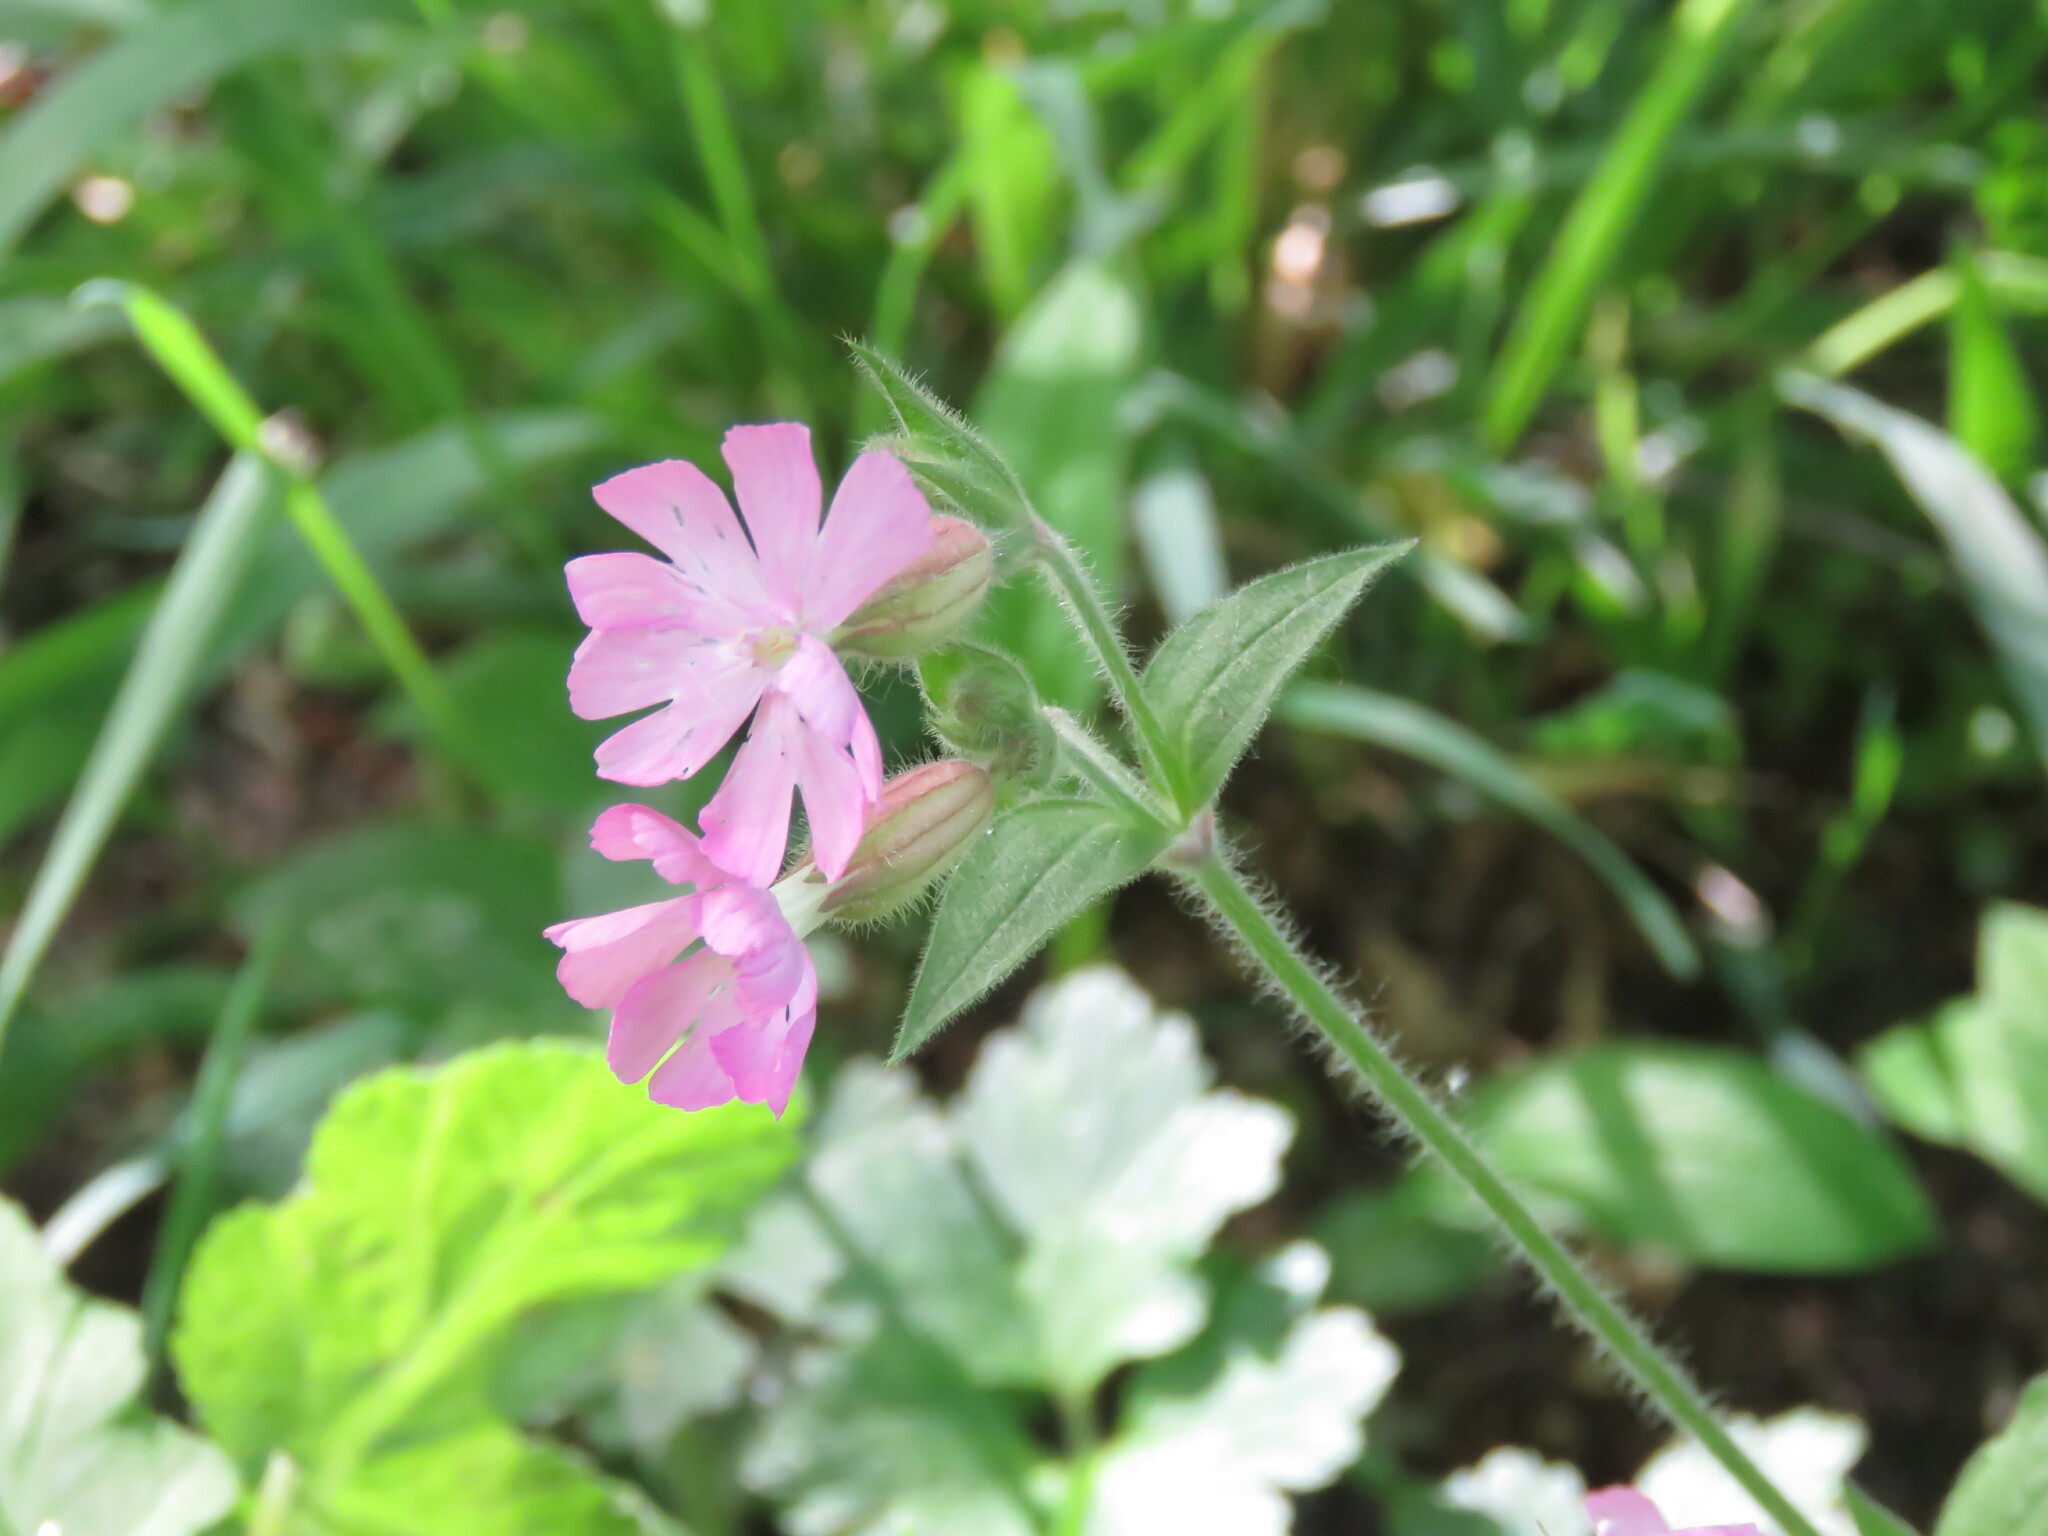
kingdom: Plantae
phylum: Tracheophyta
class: Magnoliopsida
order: Caryophyllales
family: Caryophyllaceae
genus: Silene
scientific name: Silene dioica
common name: Red campion
